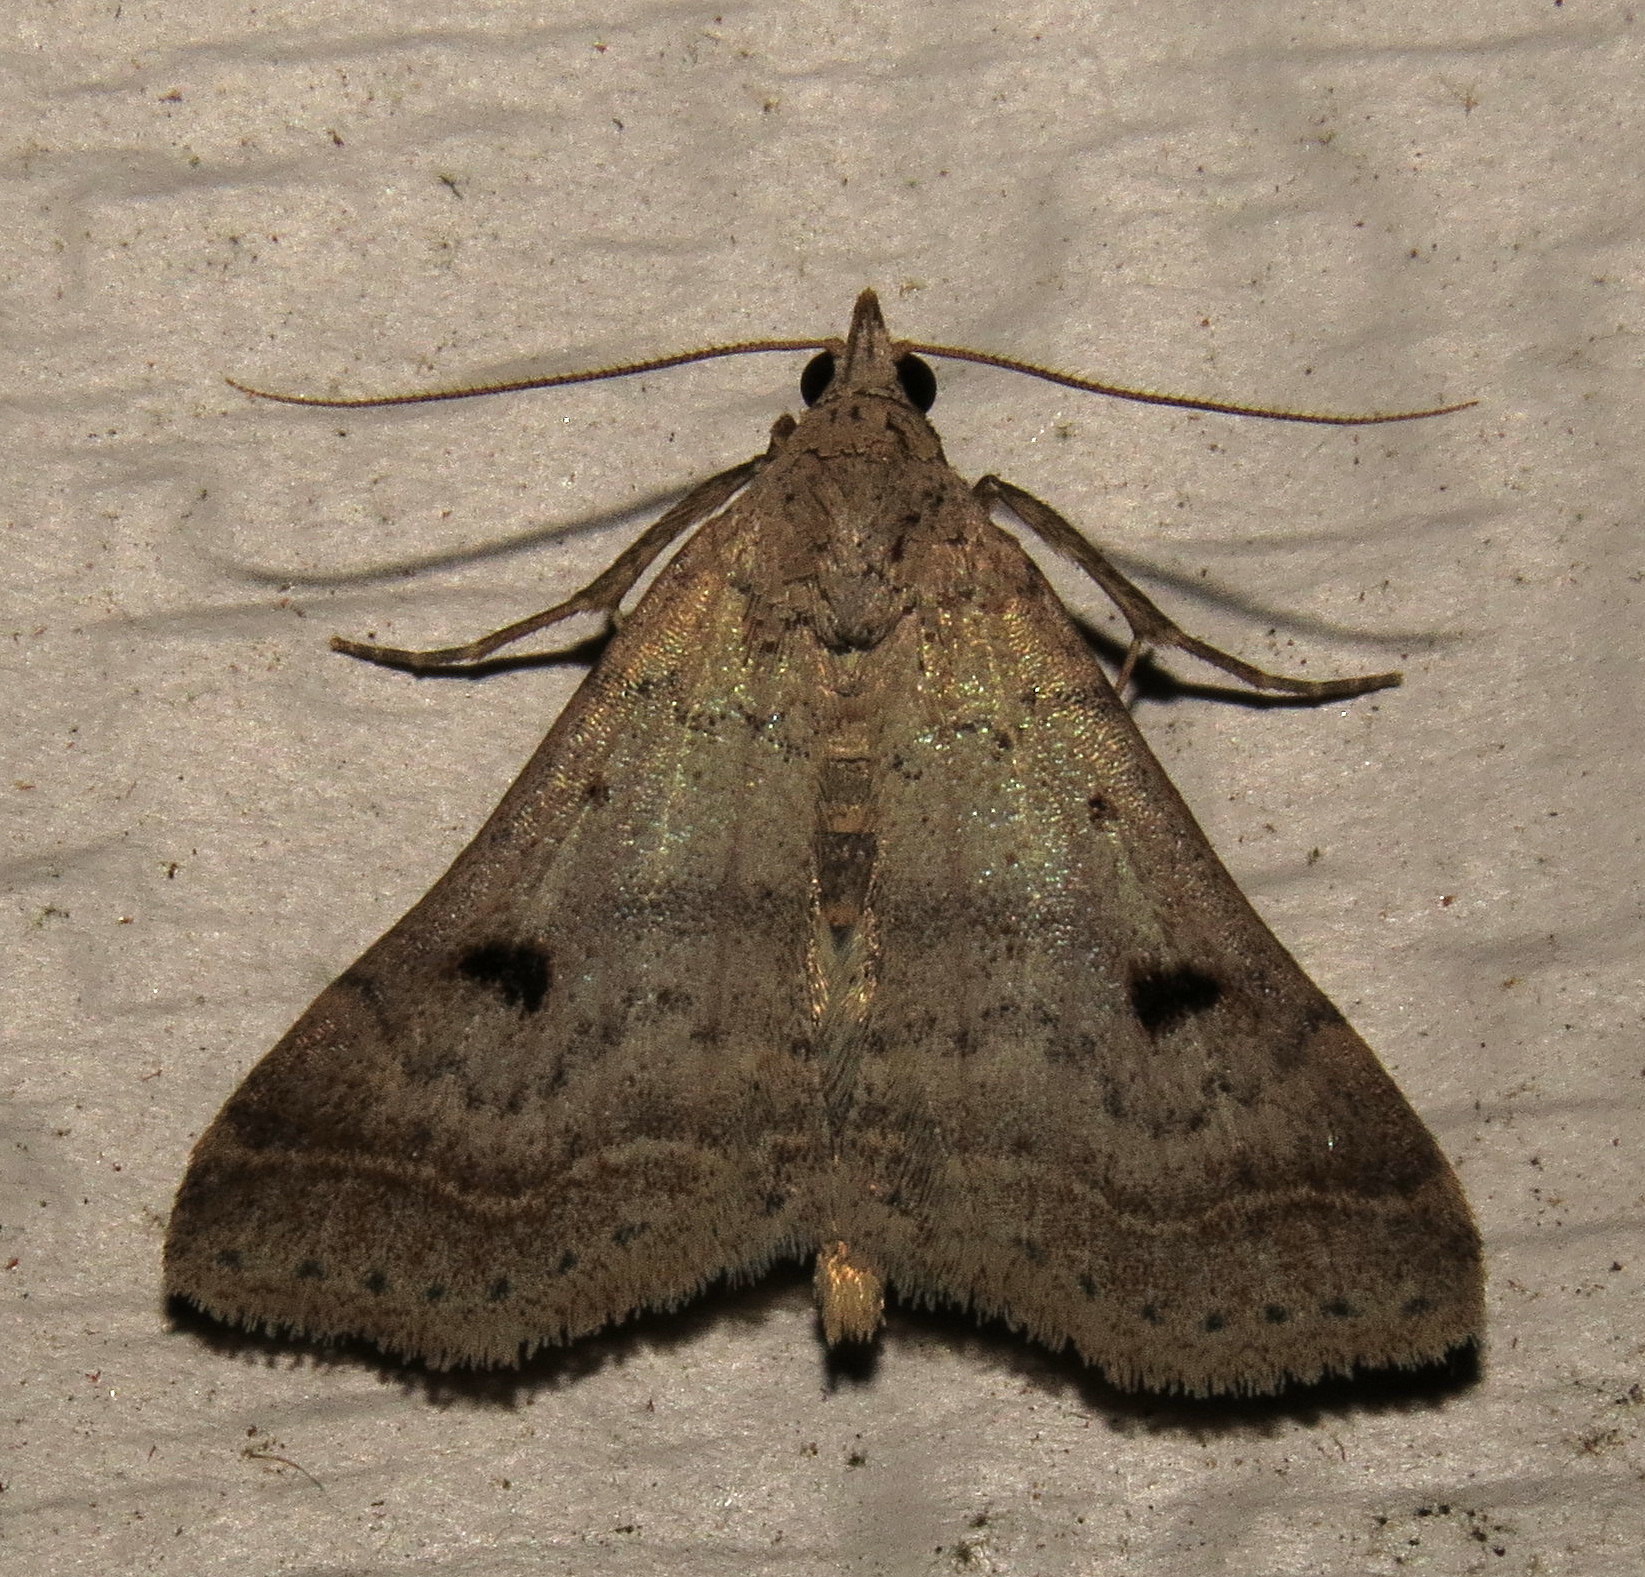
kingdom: Animalia
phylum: Arthropoda
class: Insecta
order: Lepidoptera
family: Erebidae
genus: Bleptina
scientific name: Bleptina caradrinalis
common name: Bent-winged owlet
